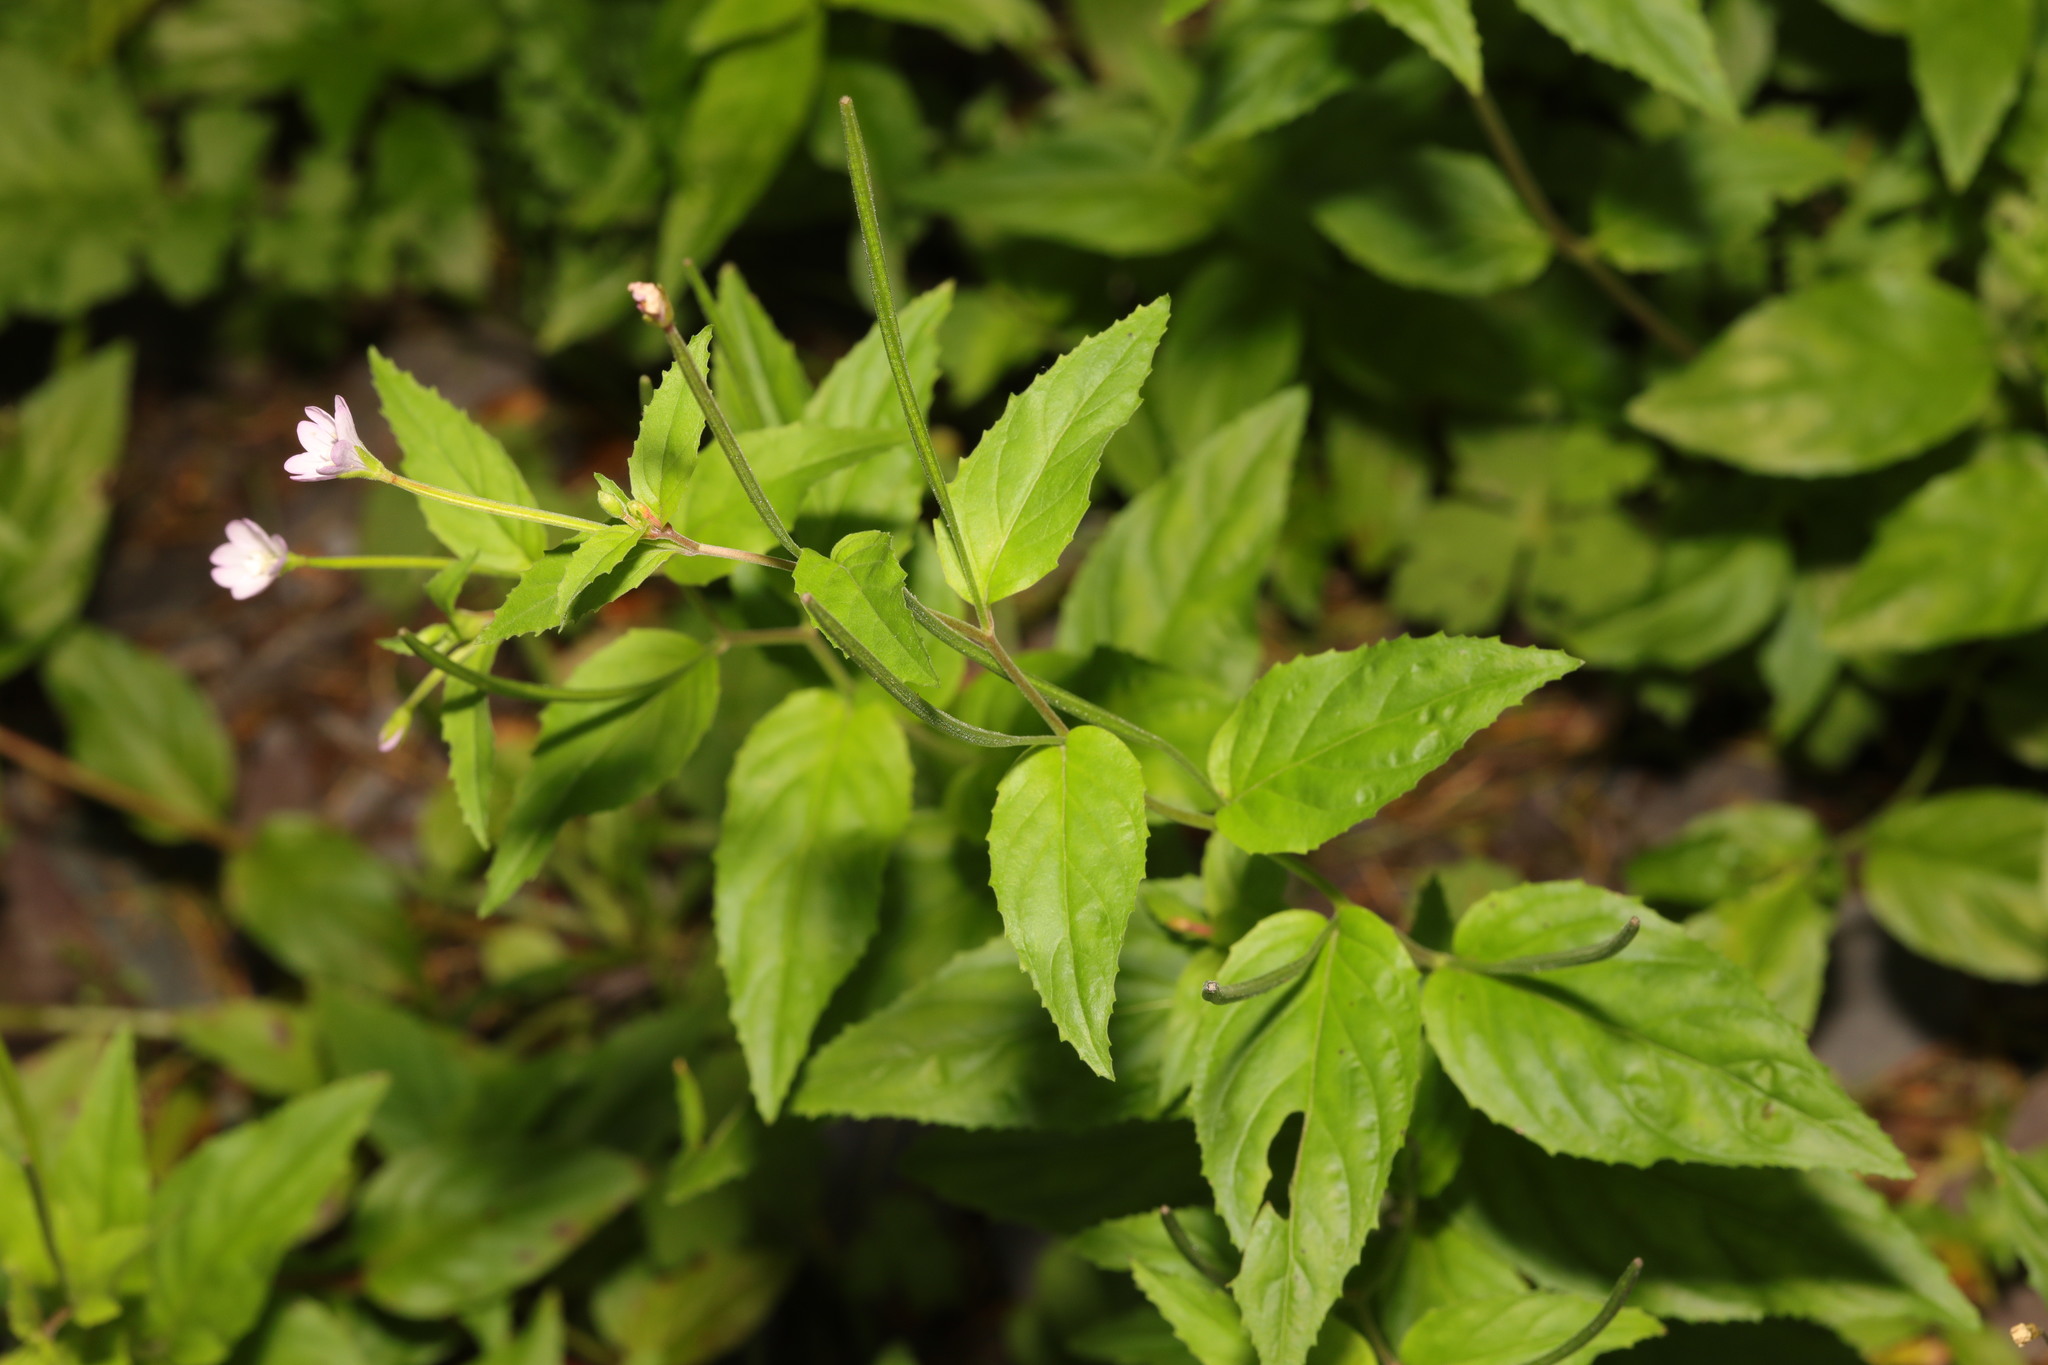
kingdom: Plantae
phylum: Tracheophyta
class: Magnoliopsida
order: Myrtales
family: Onagraceae
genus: Epilobium
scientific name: Epilobium montanum
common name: Broad-leaved willowherb
